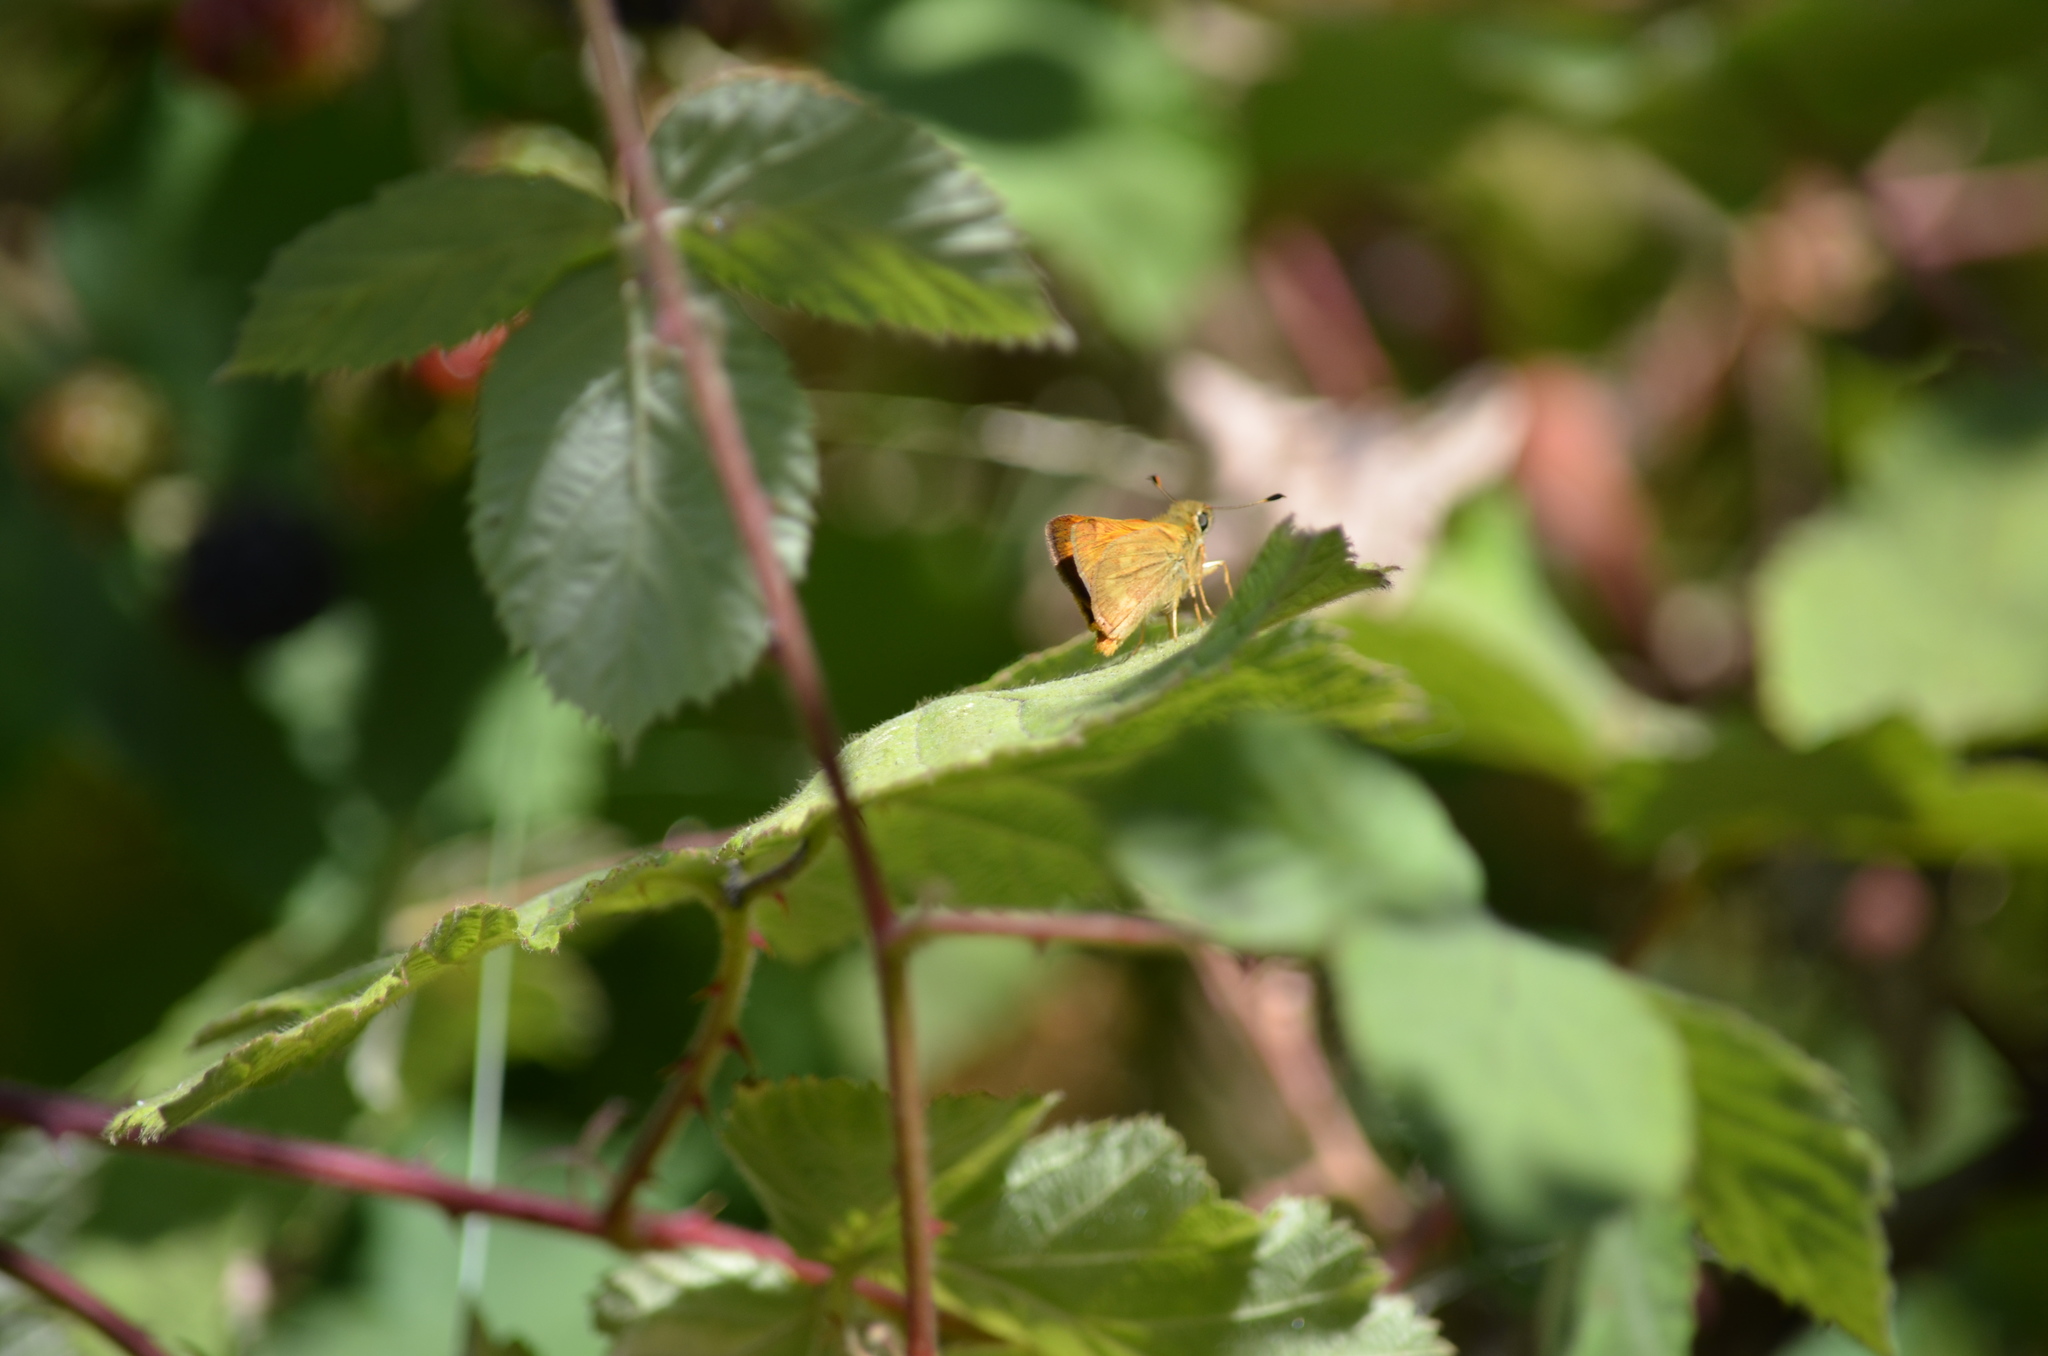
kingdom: Animalia
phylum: Arthropoda
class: Insecta
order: Lepidoptera
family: Hesperiidae
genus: Ochlodes
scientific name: Ochlodes sylvanoides
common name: Woodland skipper
